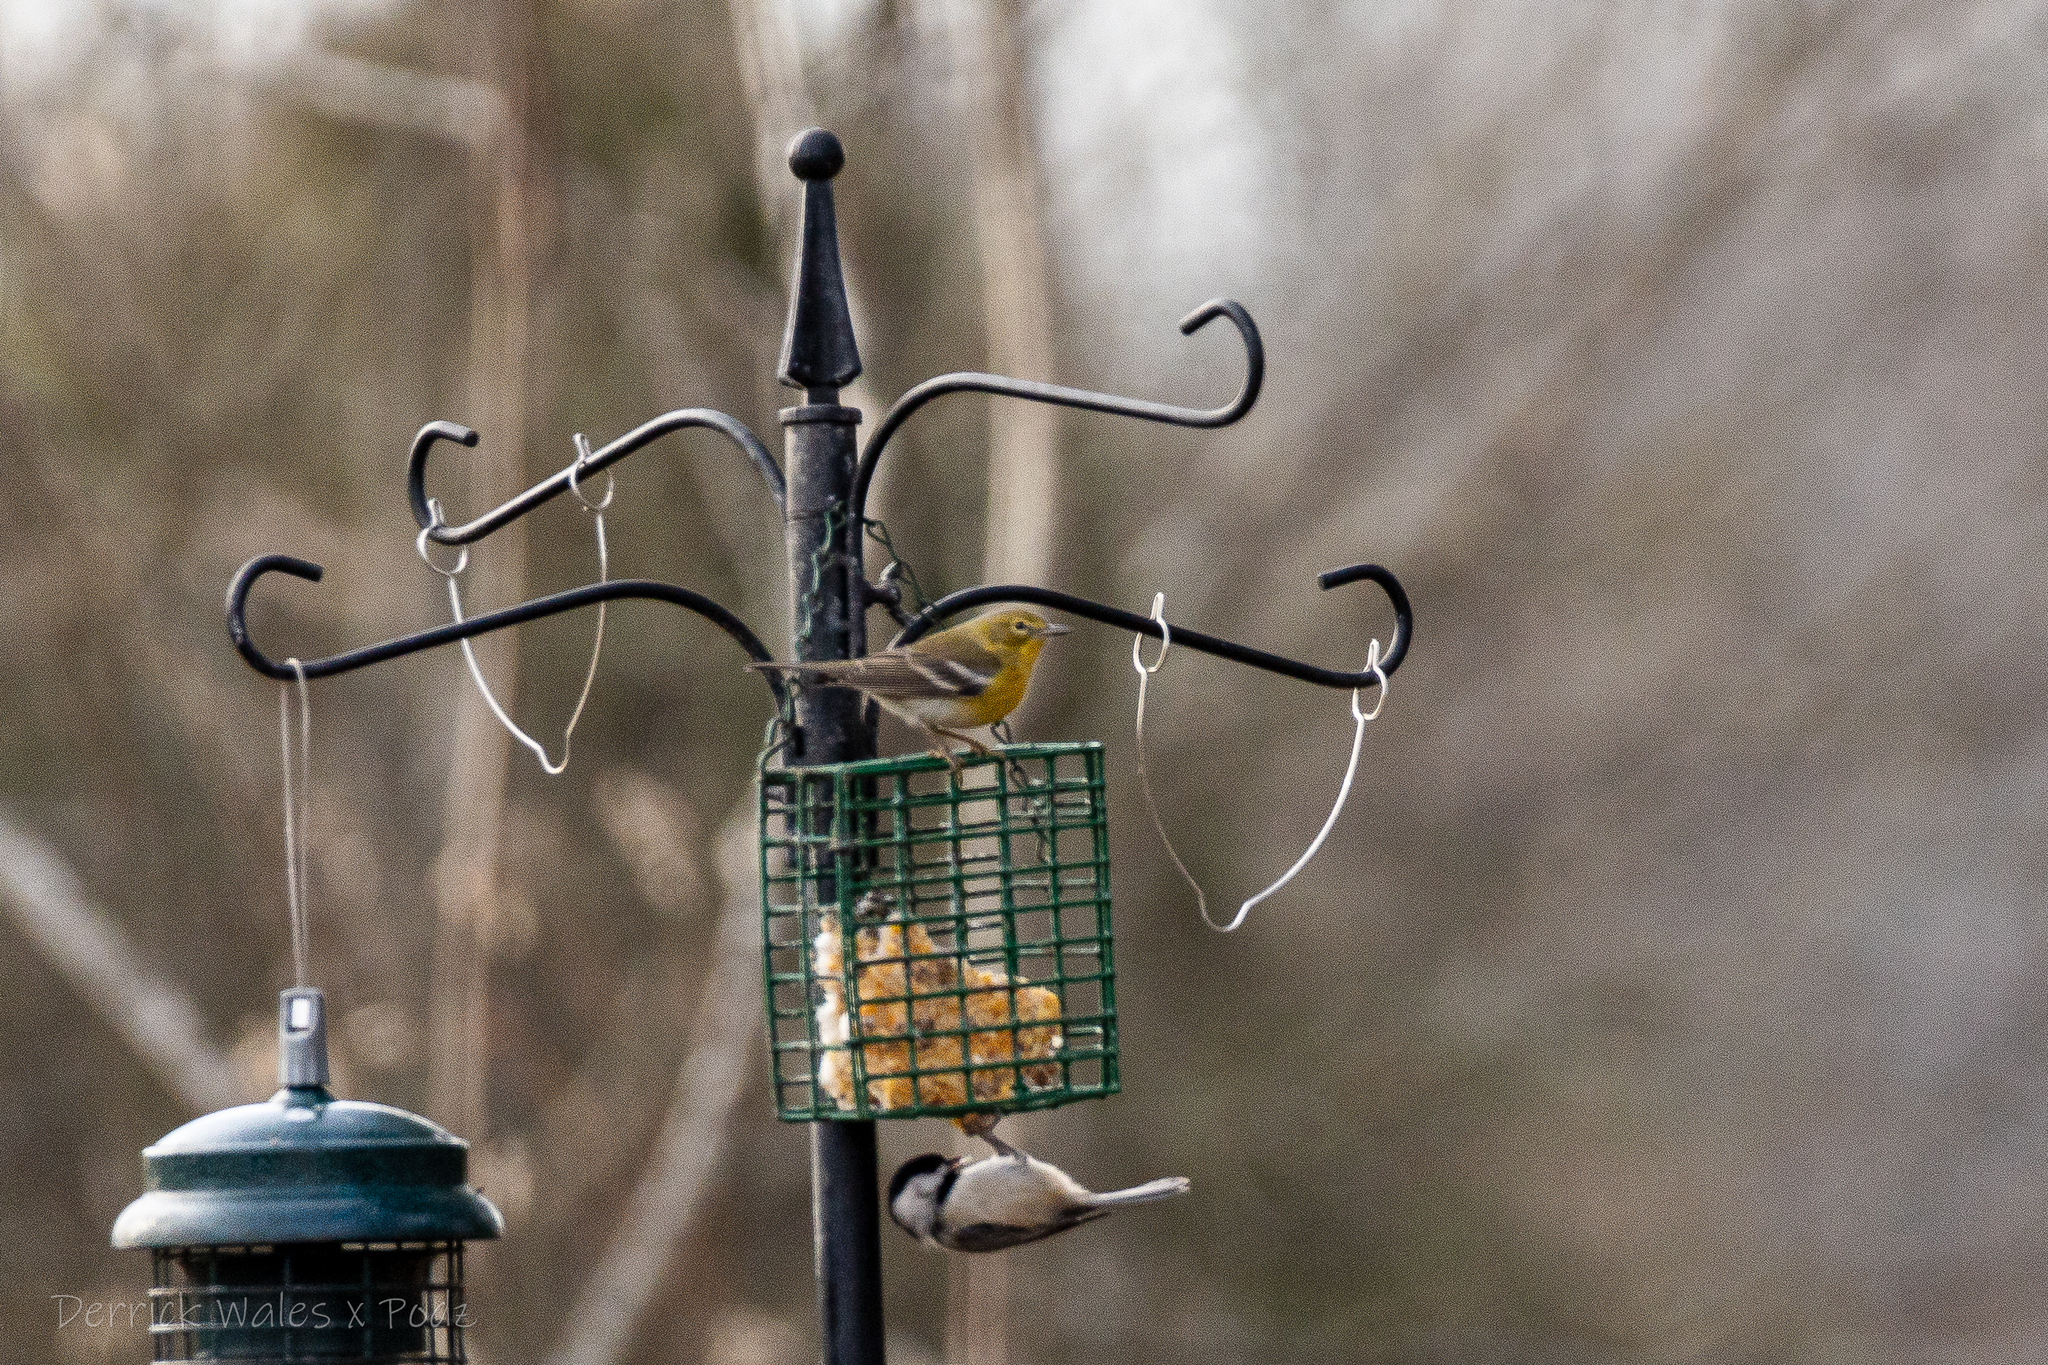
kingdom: Animalia
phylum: Chordata
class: Aves
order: Passeriformes
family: Paridae
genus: Poecile
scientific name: Poecile carolinensis
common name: Carolina chickadee
